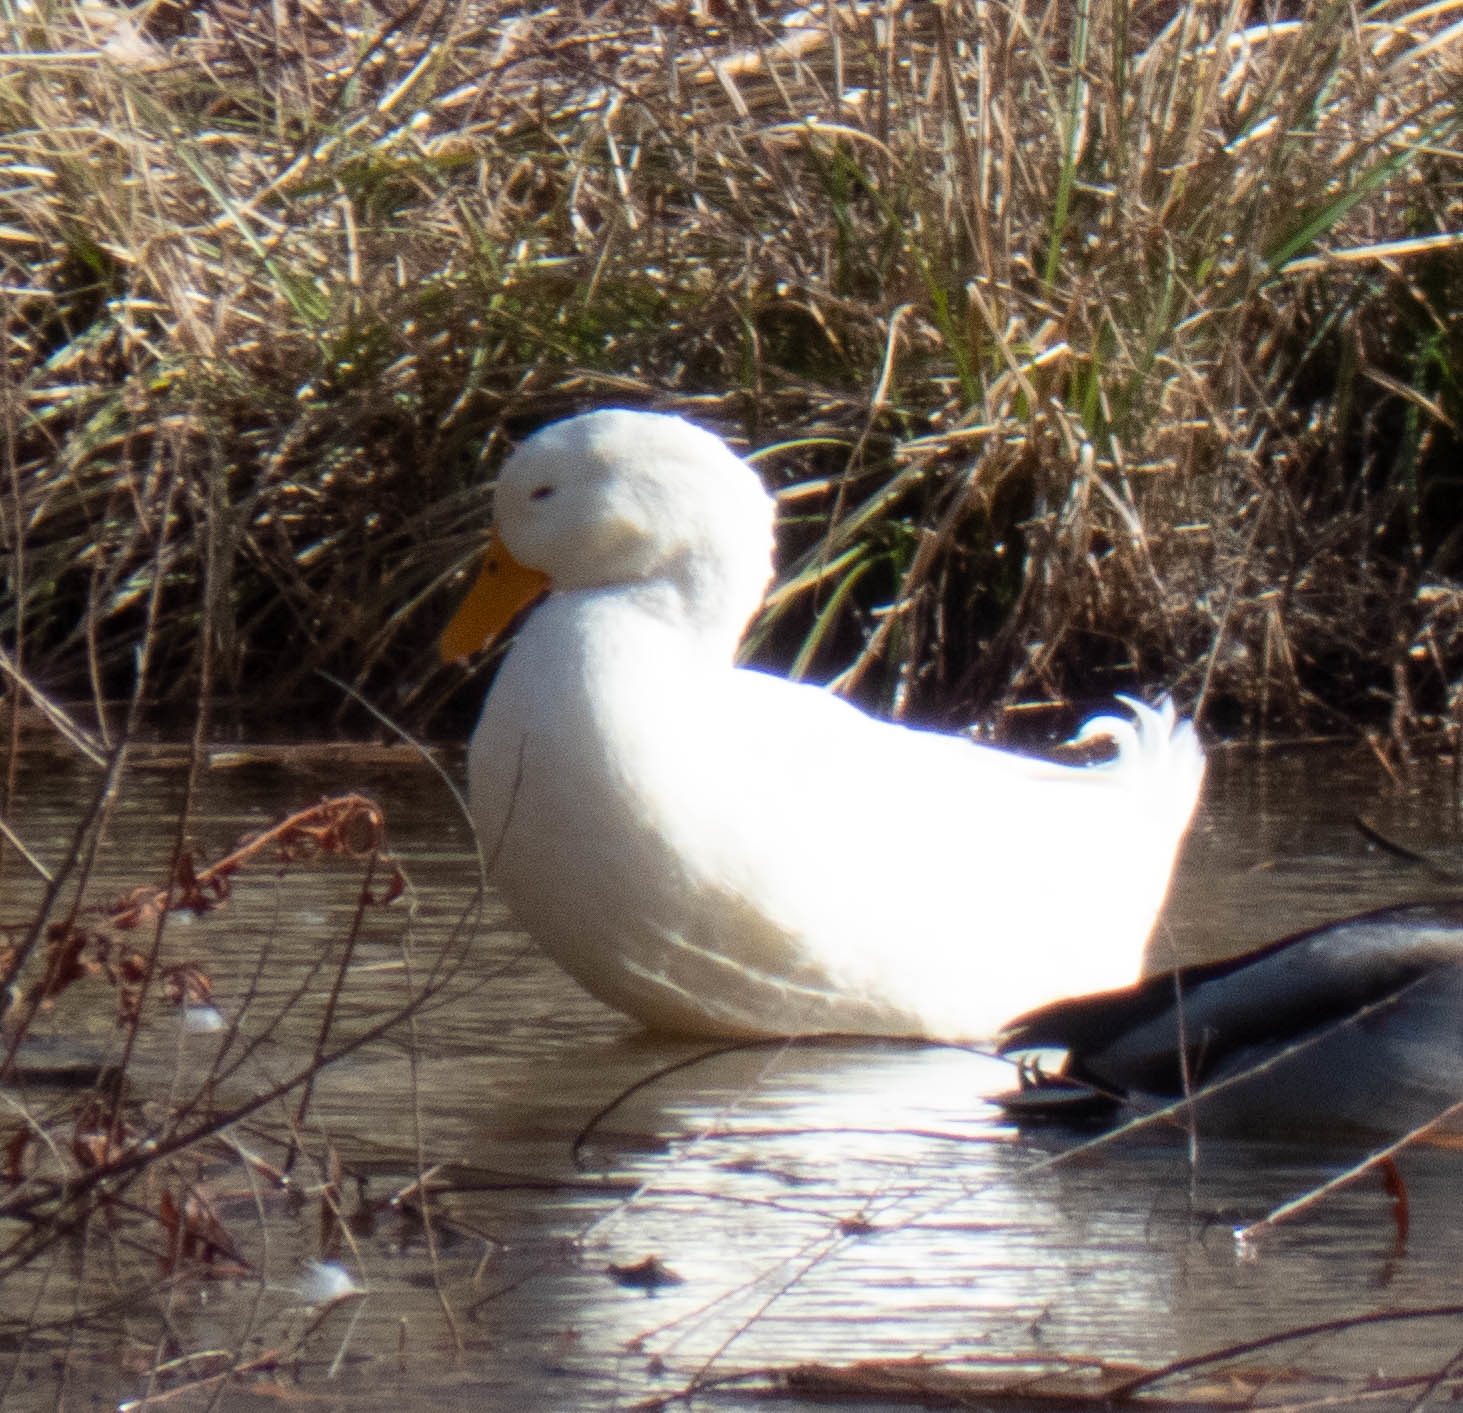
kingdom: Animalia
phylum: Chordata
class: Aves
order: Anseriformes
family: Anatidae
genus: Anas
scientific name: Anas platyrhynchos
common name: Mallard
